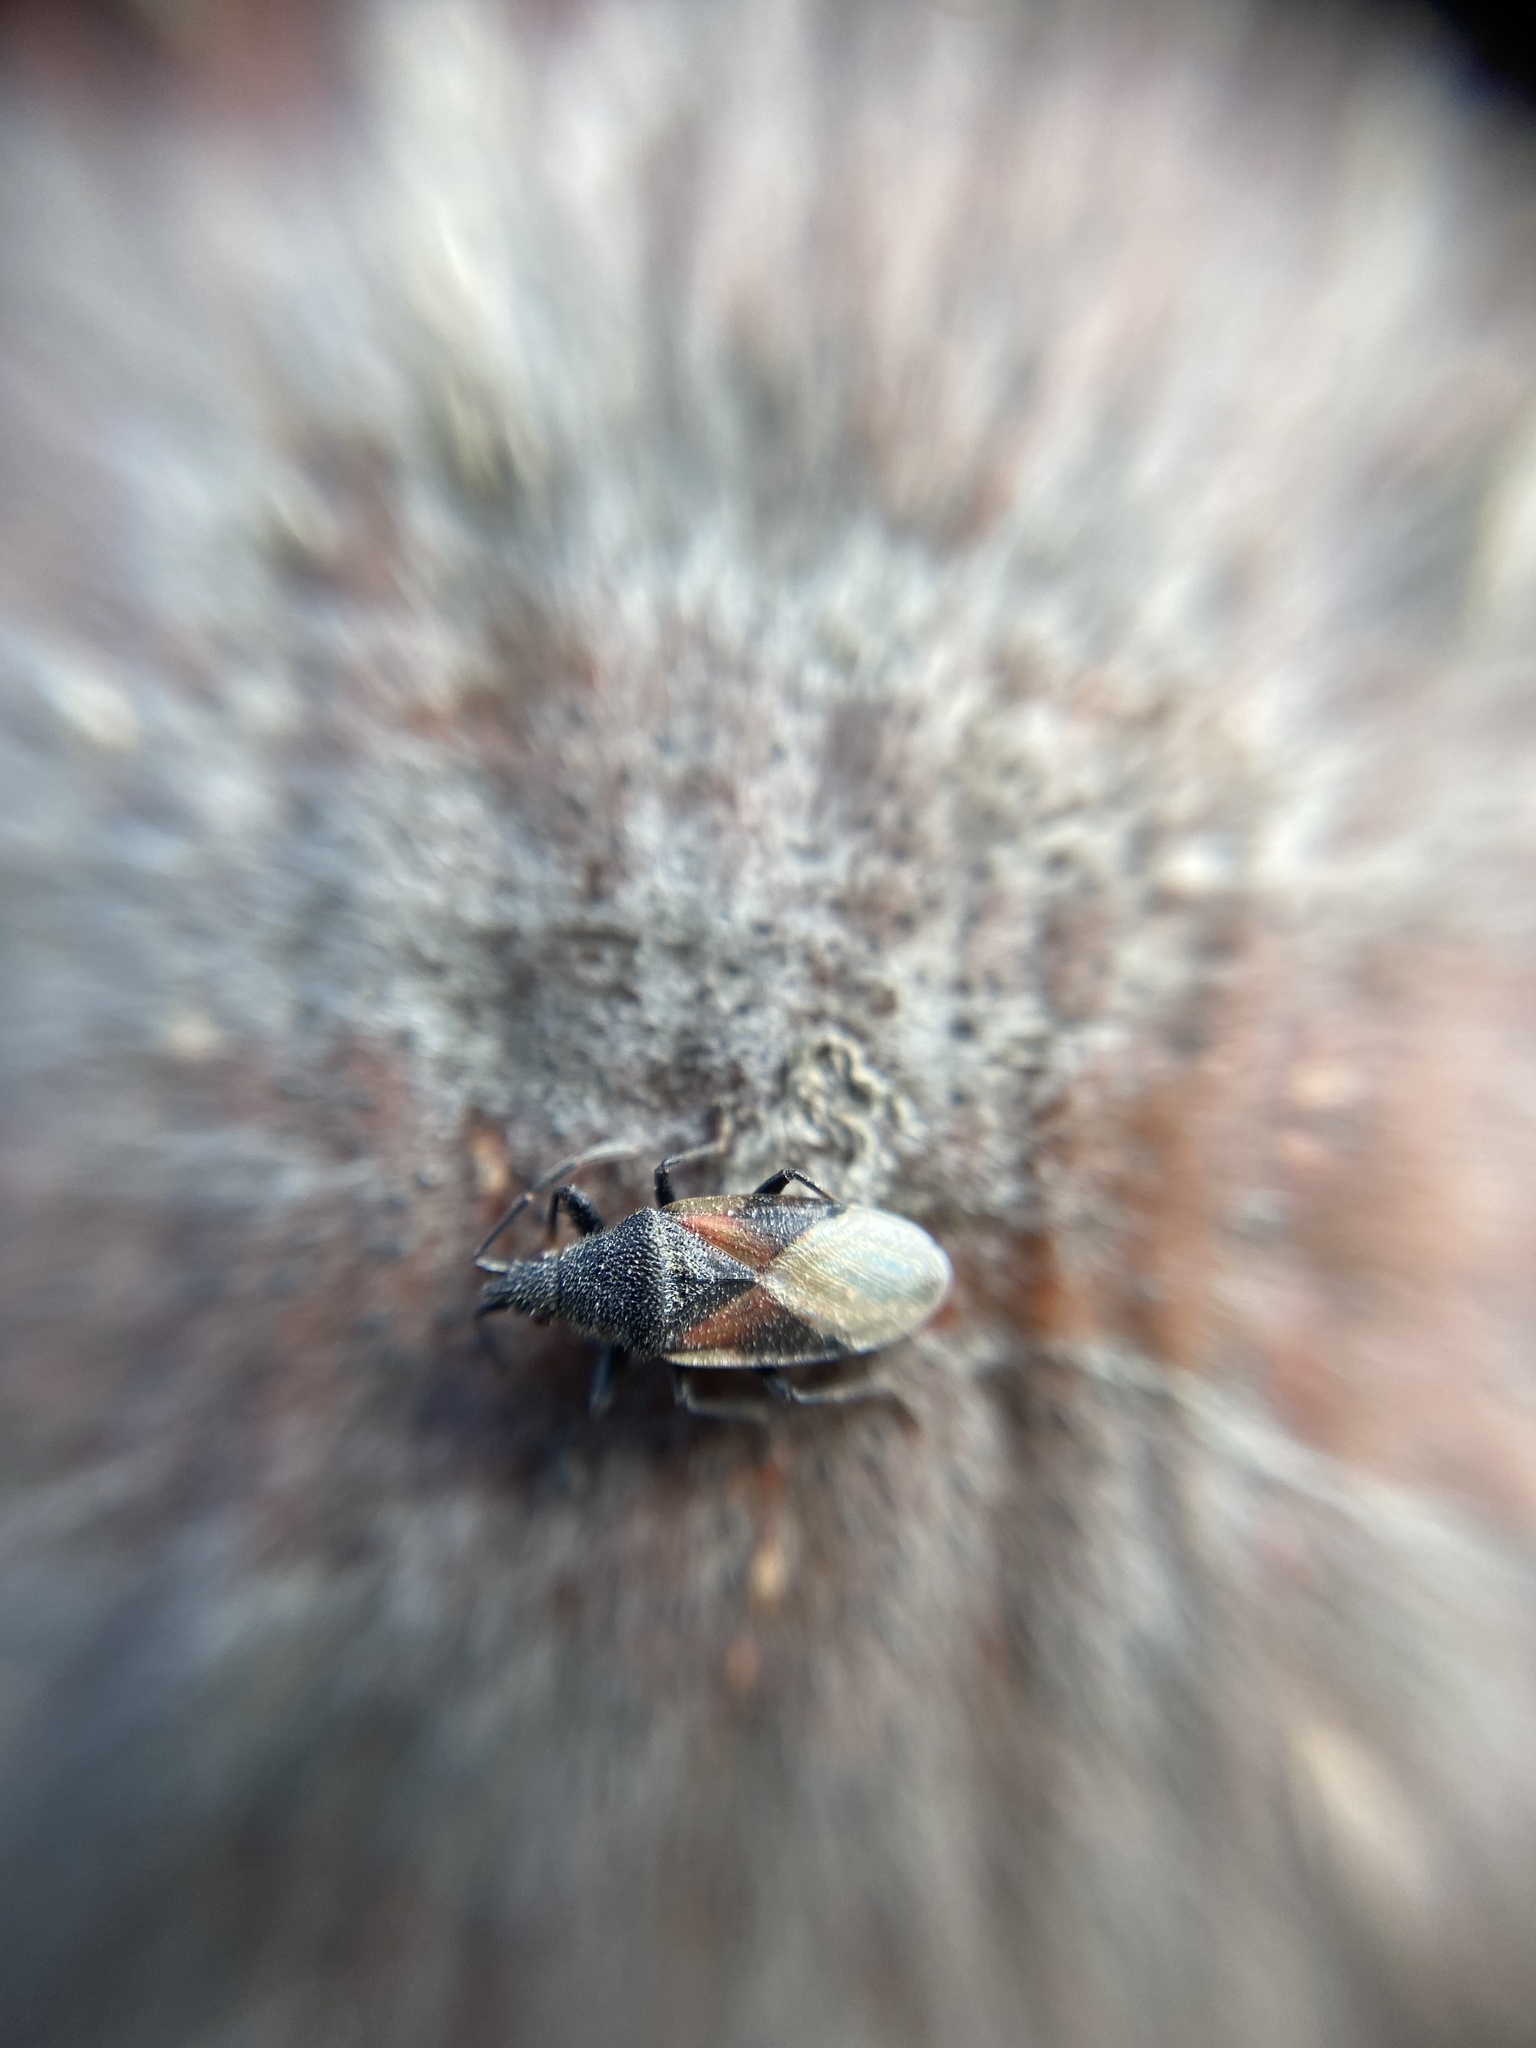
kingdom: Animalia
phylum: Arthropoda
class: Insecta
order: Hemiptera
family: Oxycarenidae
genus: Oxycarenus
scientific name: Oxycarenus lavaterae
